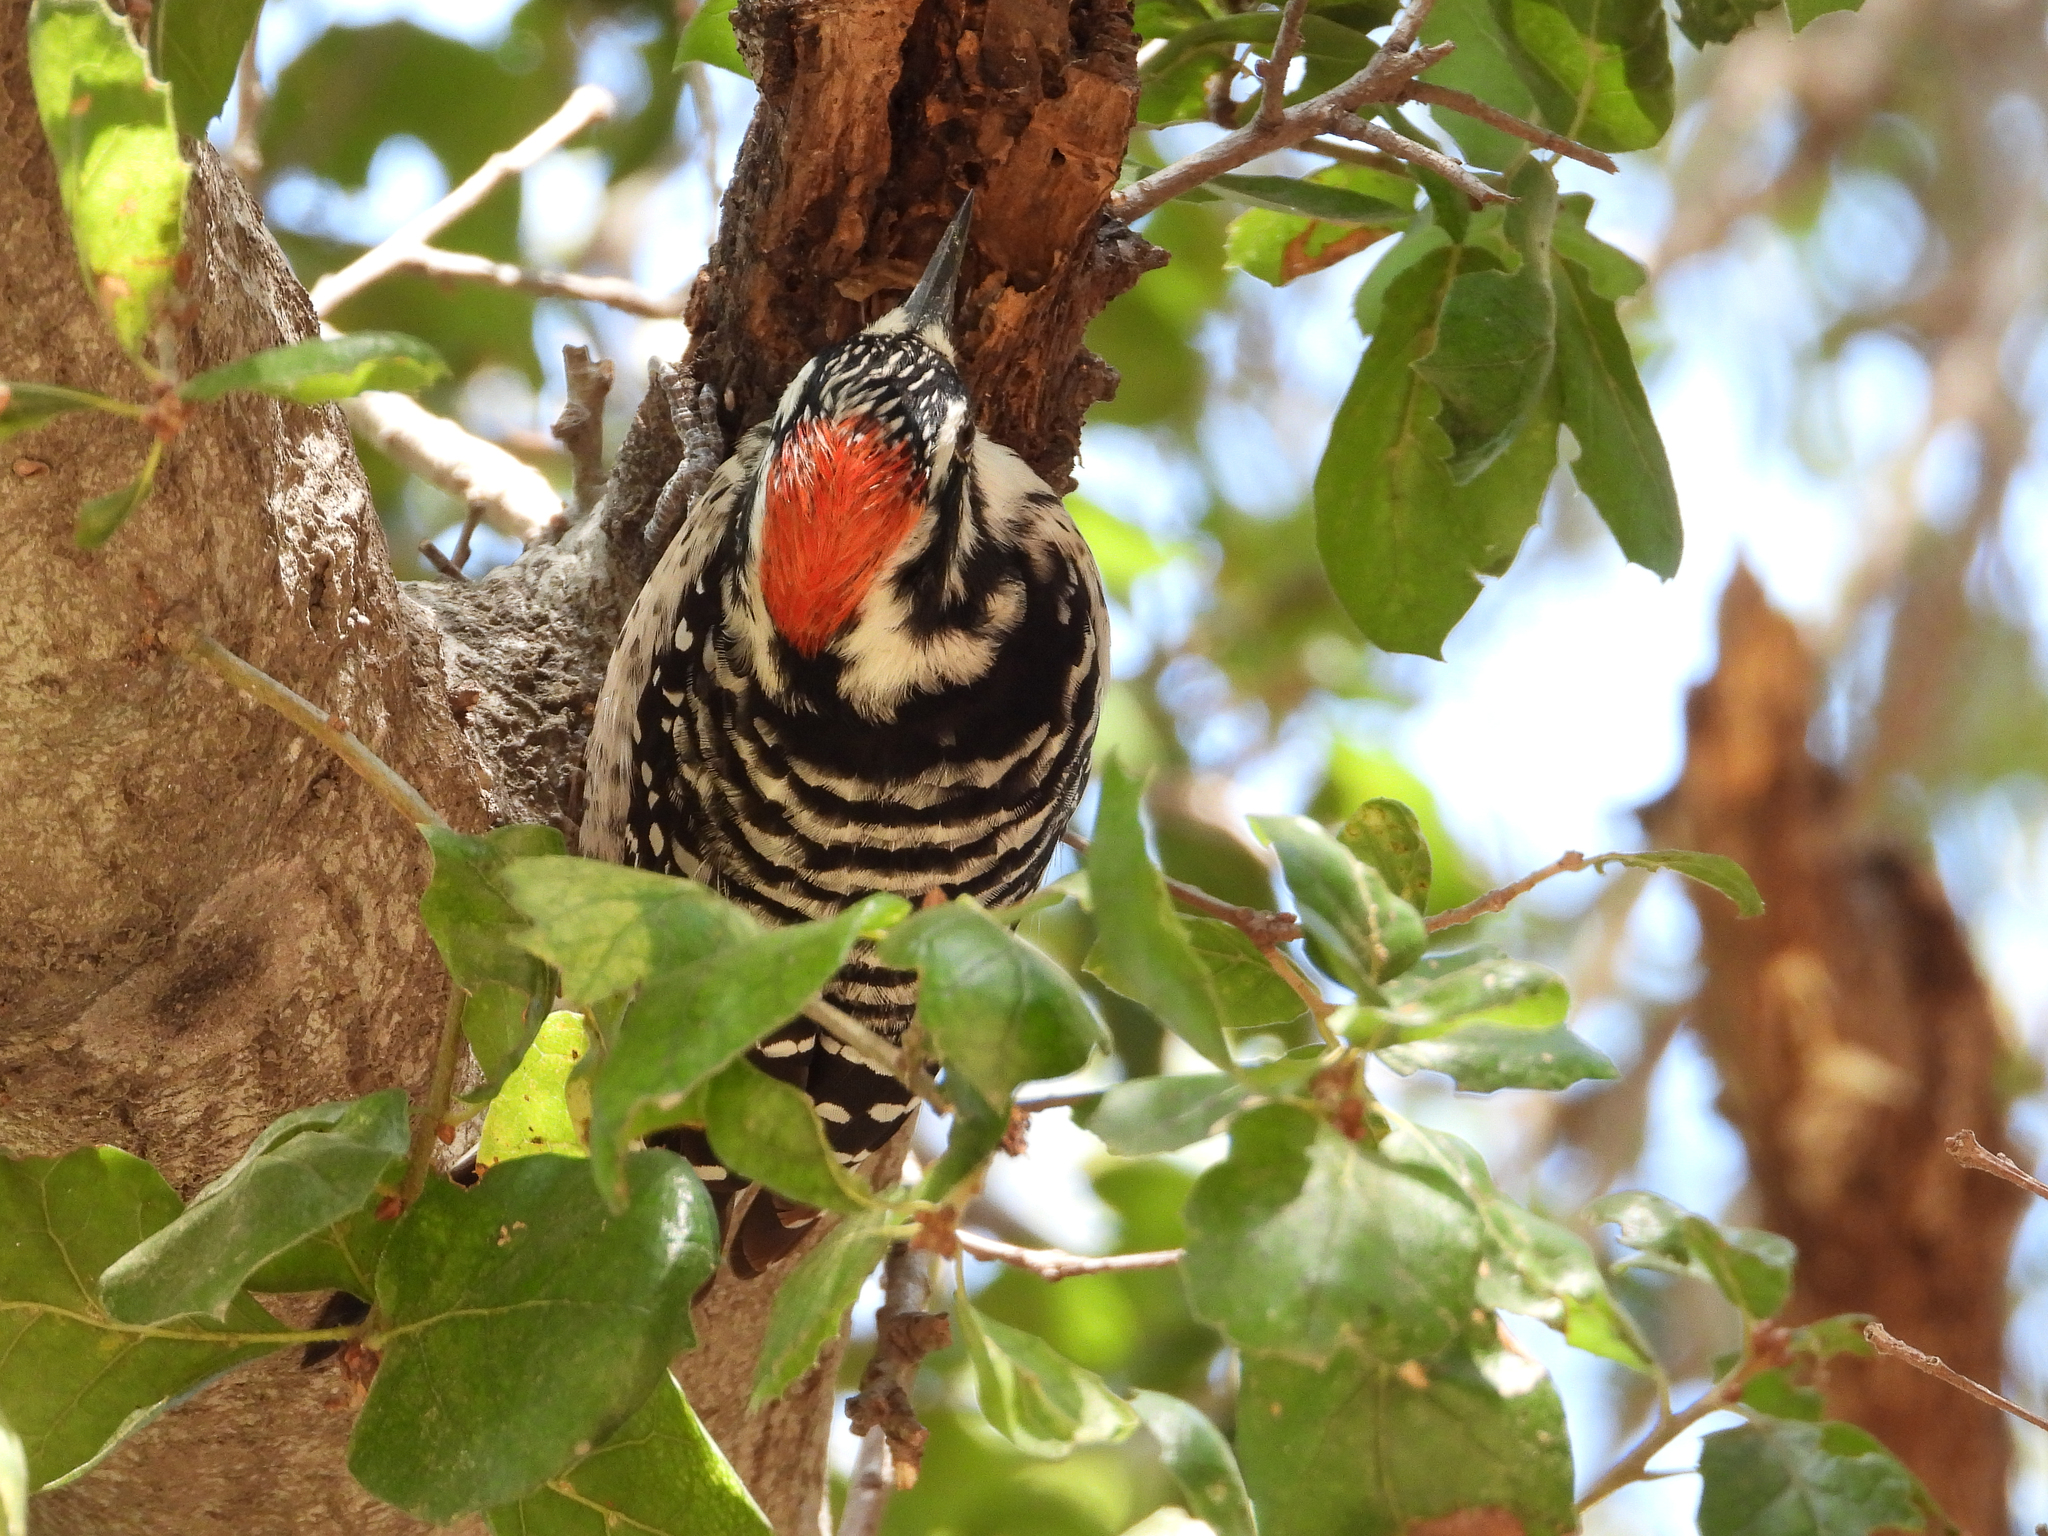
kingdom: Animalia
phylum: Chordata
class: Aves
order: Piciformes
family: Picidae
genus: Dryobates
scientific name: Dryobates nuttallii
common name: Nuttall's woodpecker
